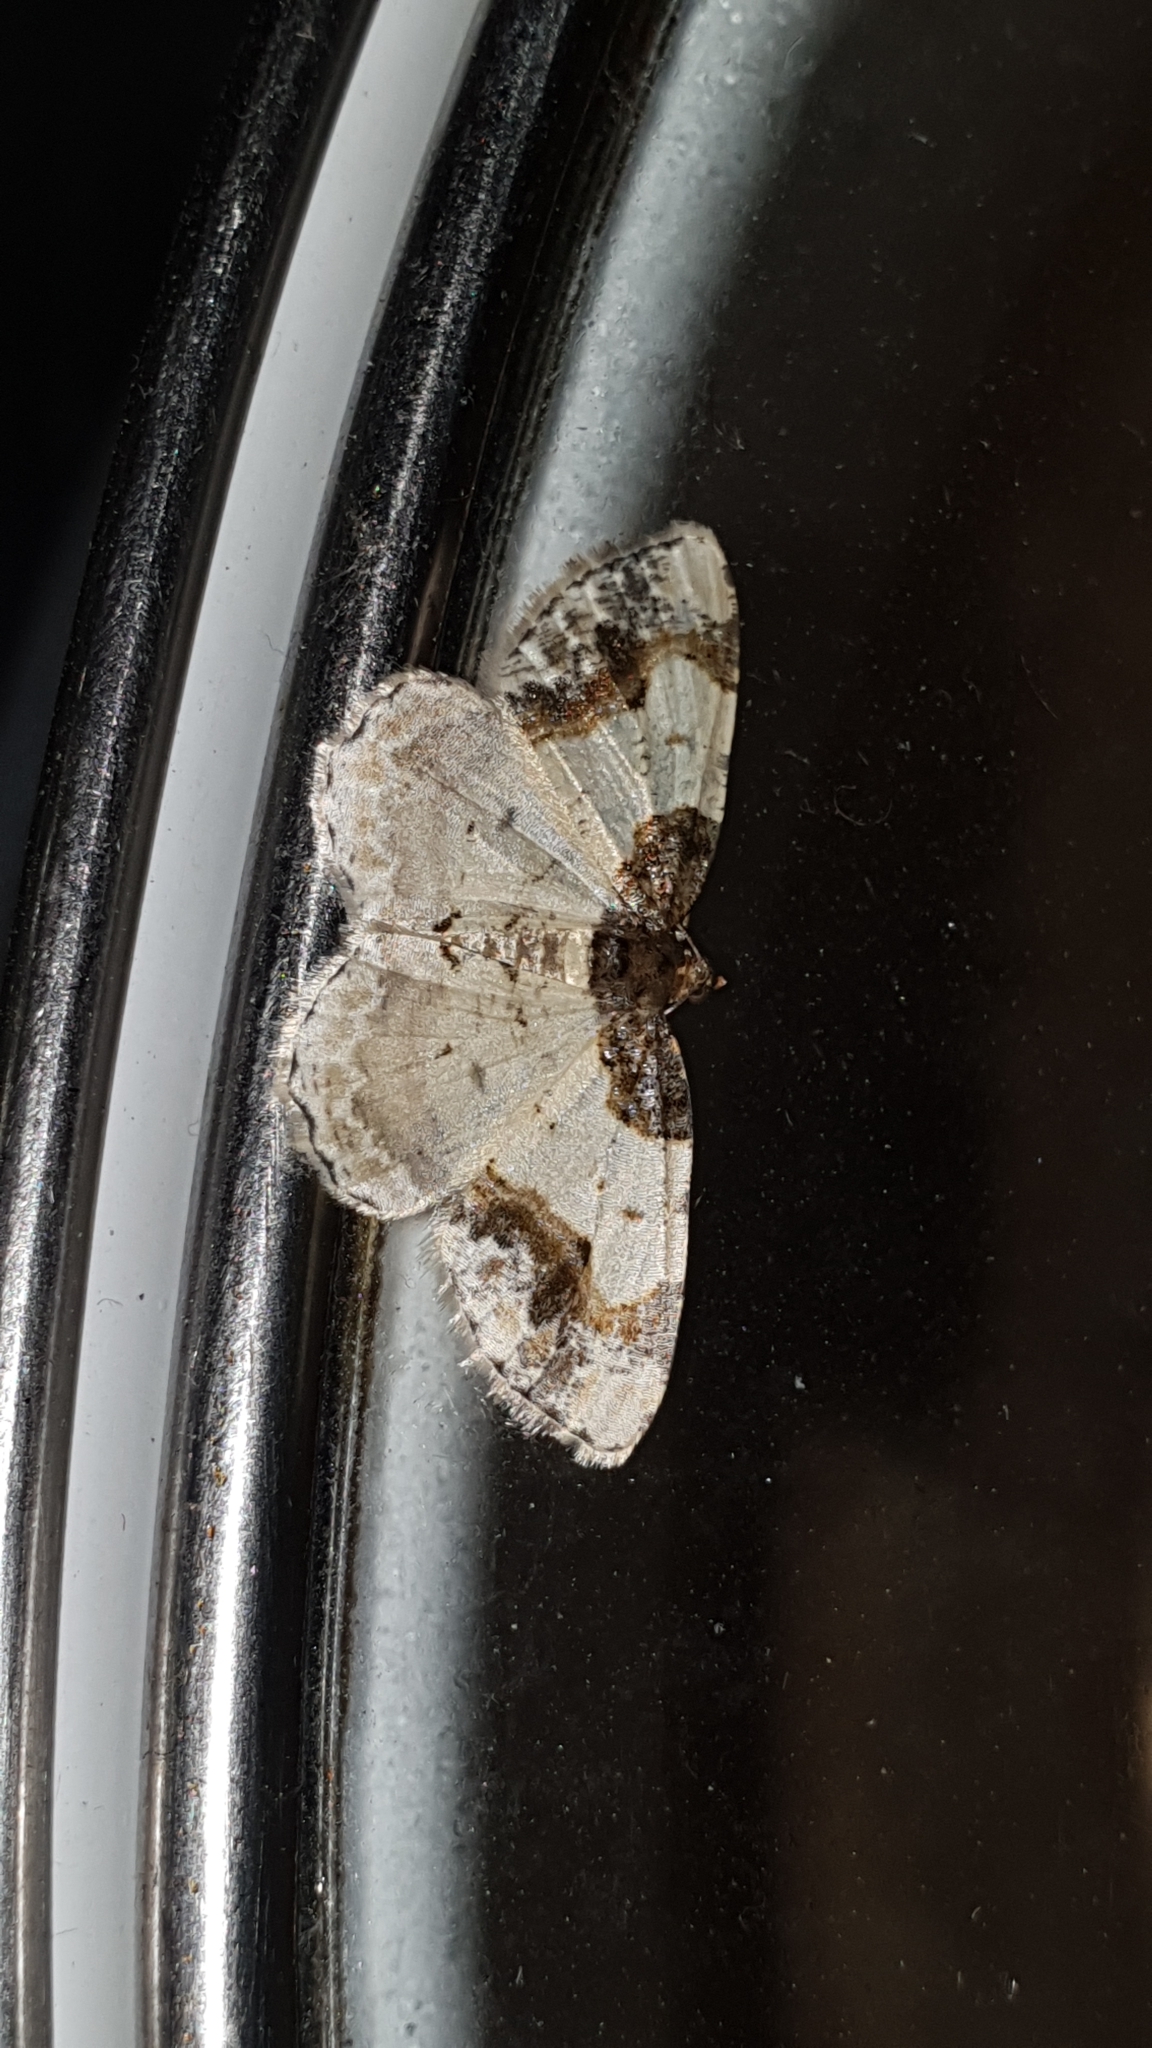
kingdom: Animalia
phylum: Arthropoda
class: Insecta
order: Lepidoptera
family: Geometridae
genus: Ligdia
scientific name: Ligdia adustata
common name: Scorched carpet
